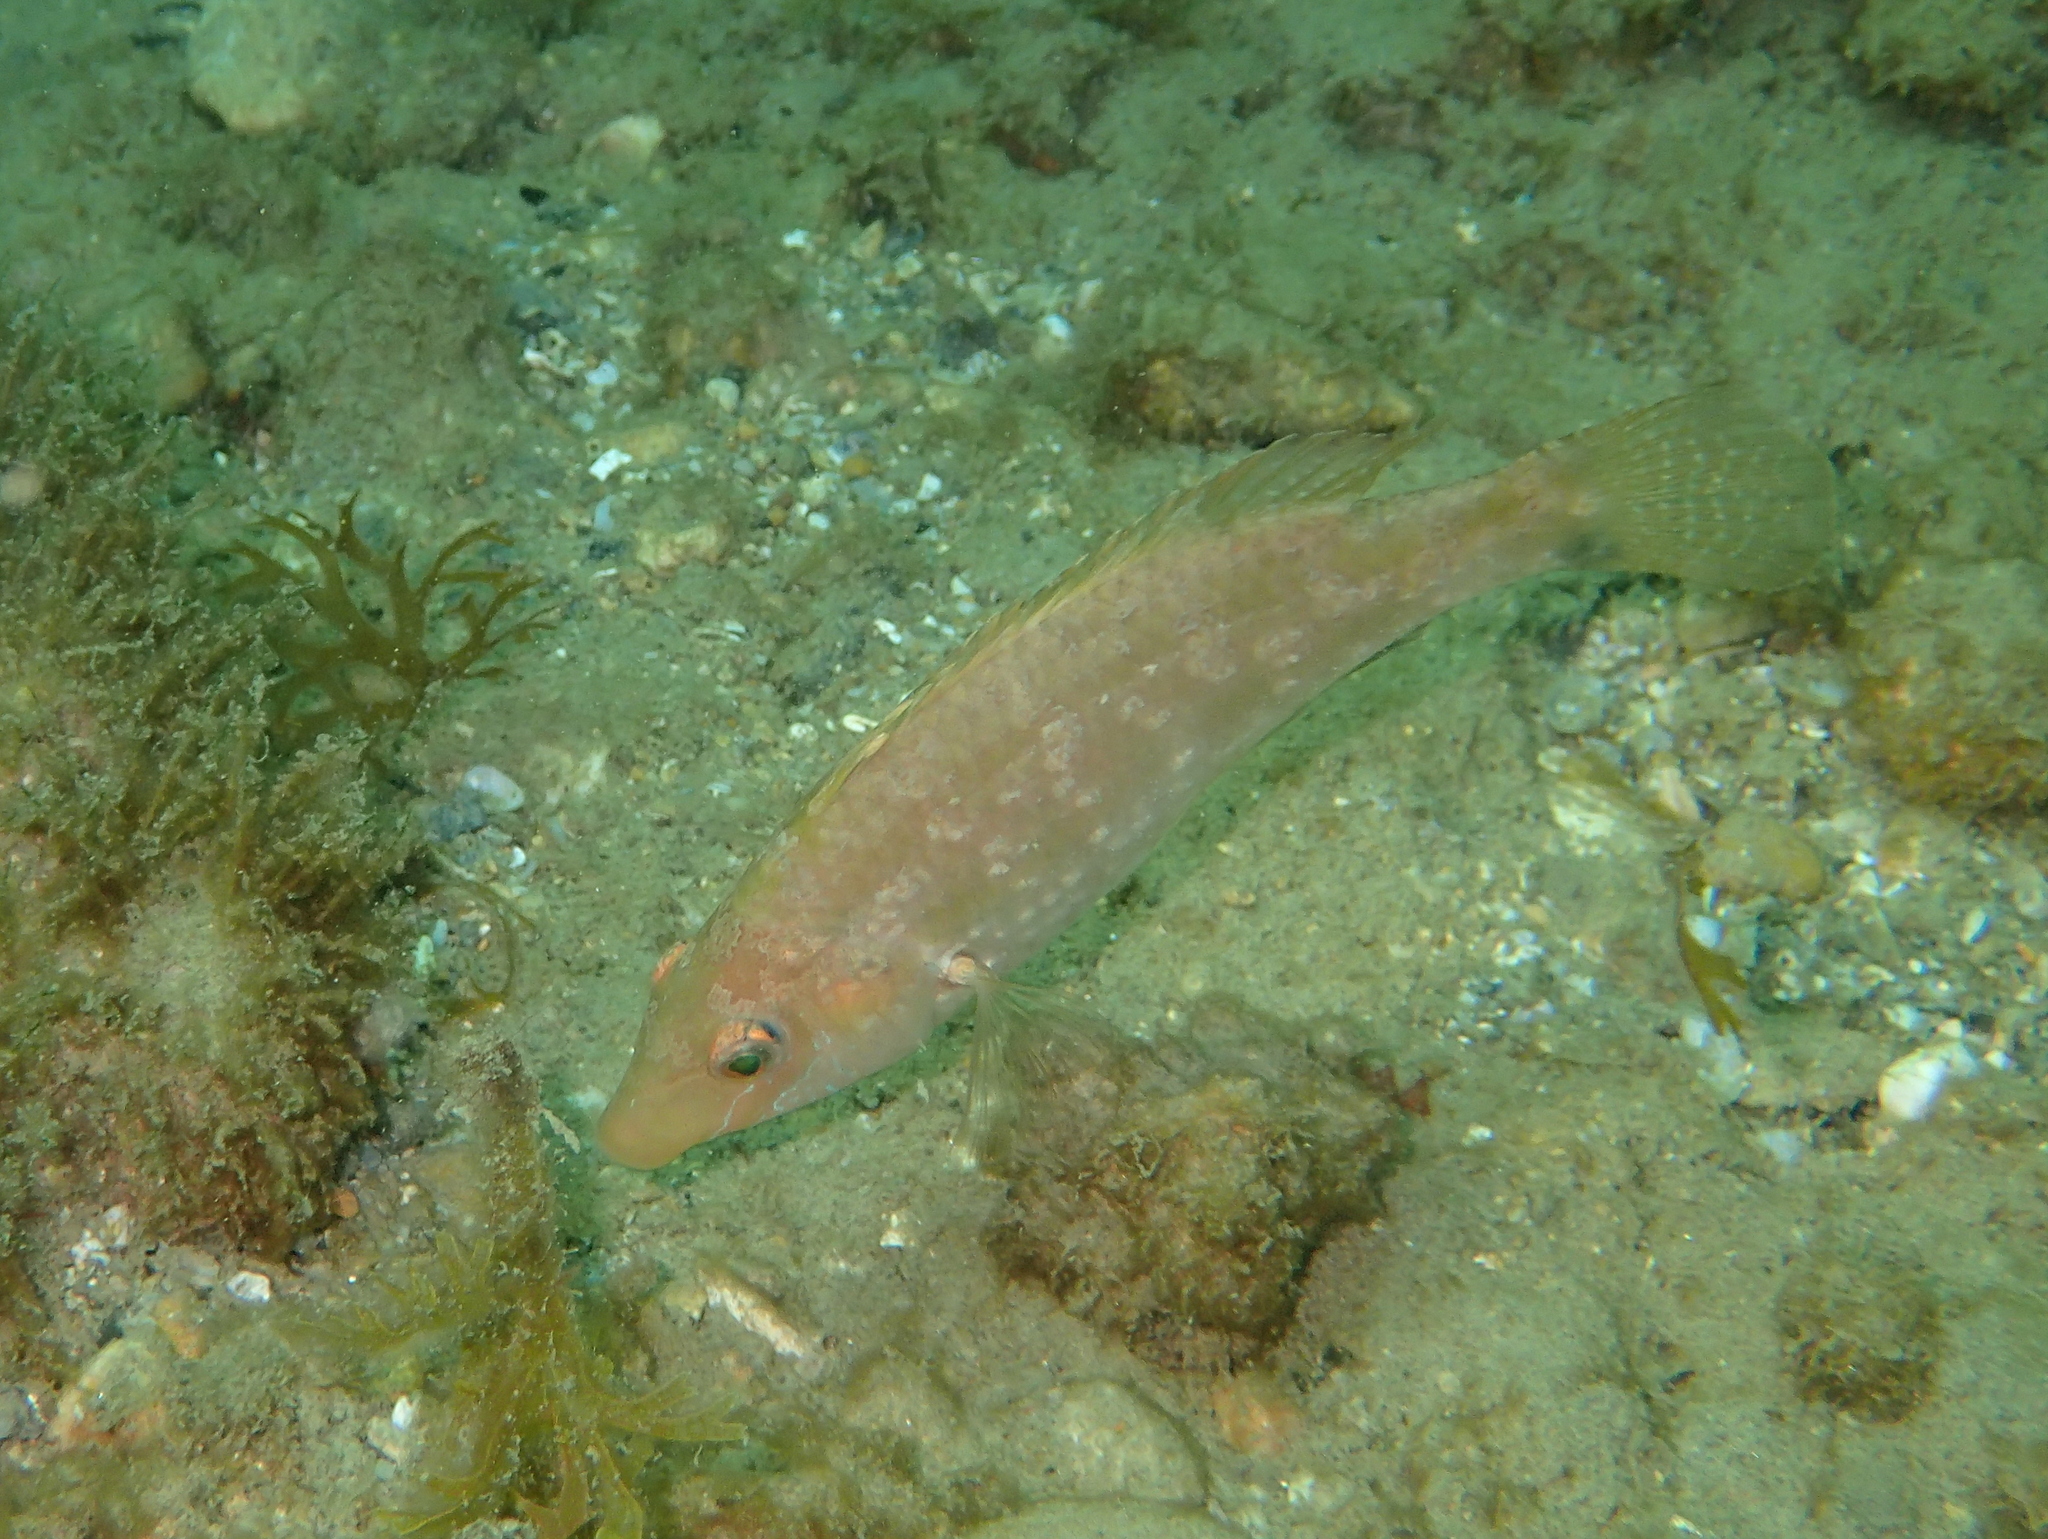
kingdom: Animalia
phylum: Chordata
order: Perciformes
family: Labridae
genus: Symphodus
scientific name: Symphodus cinereus
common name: Grey wrasse
